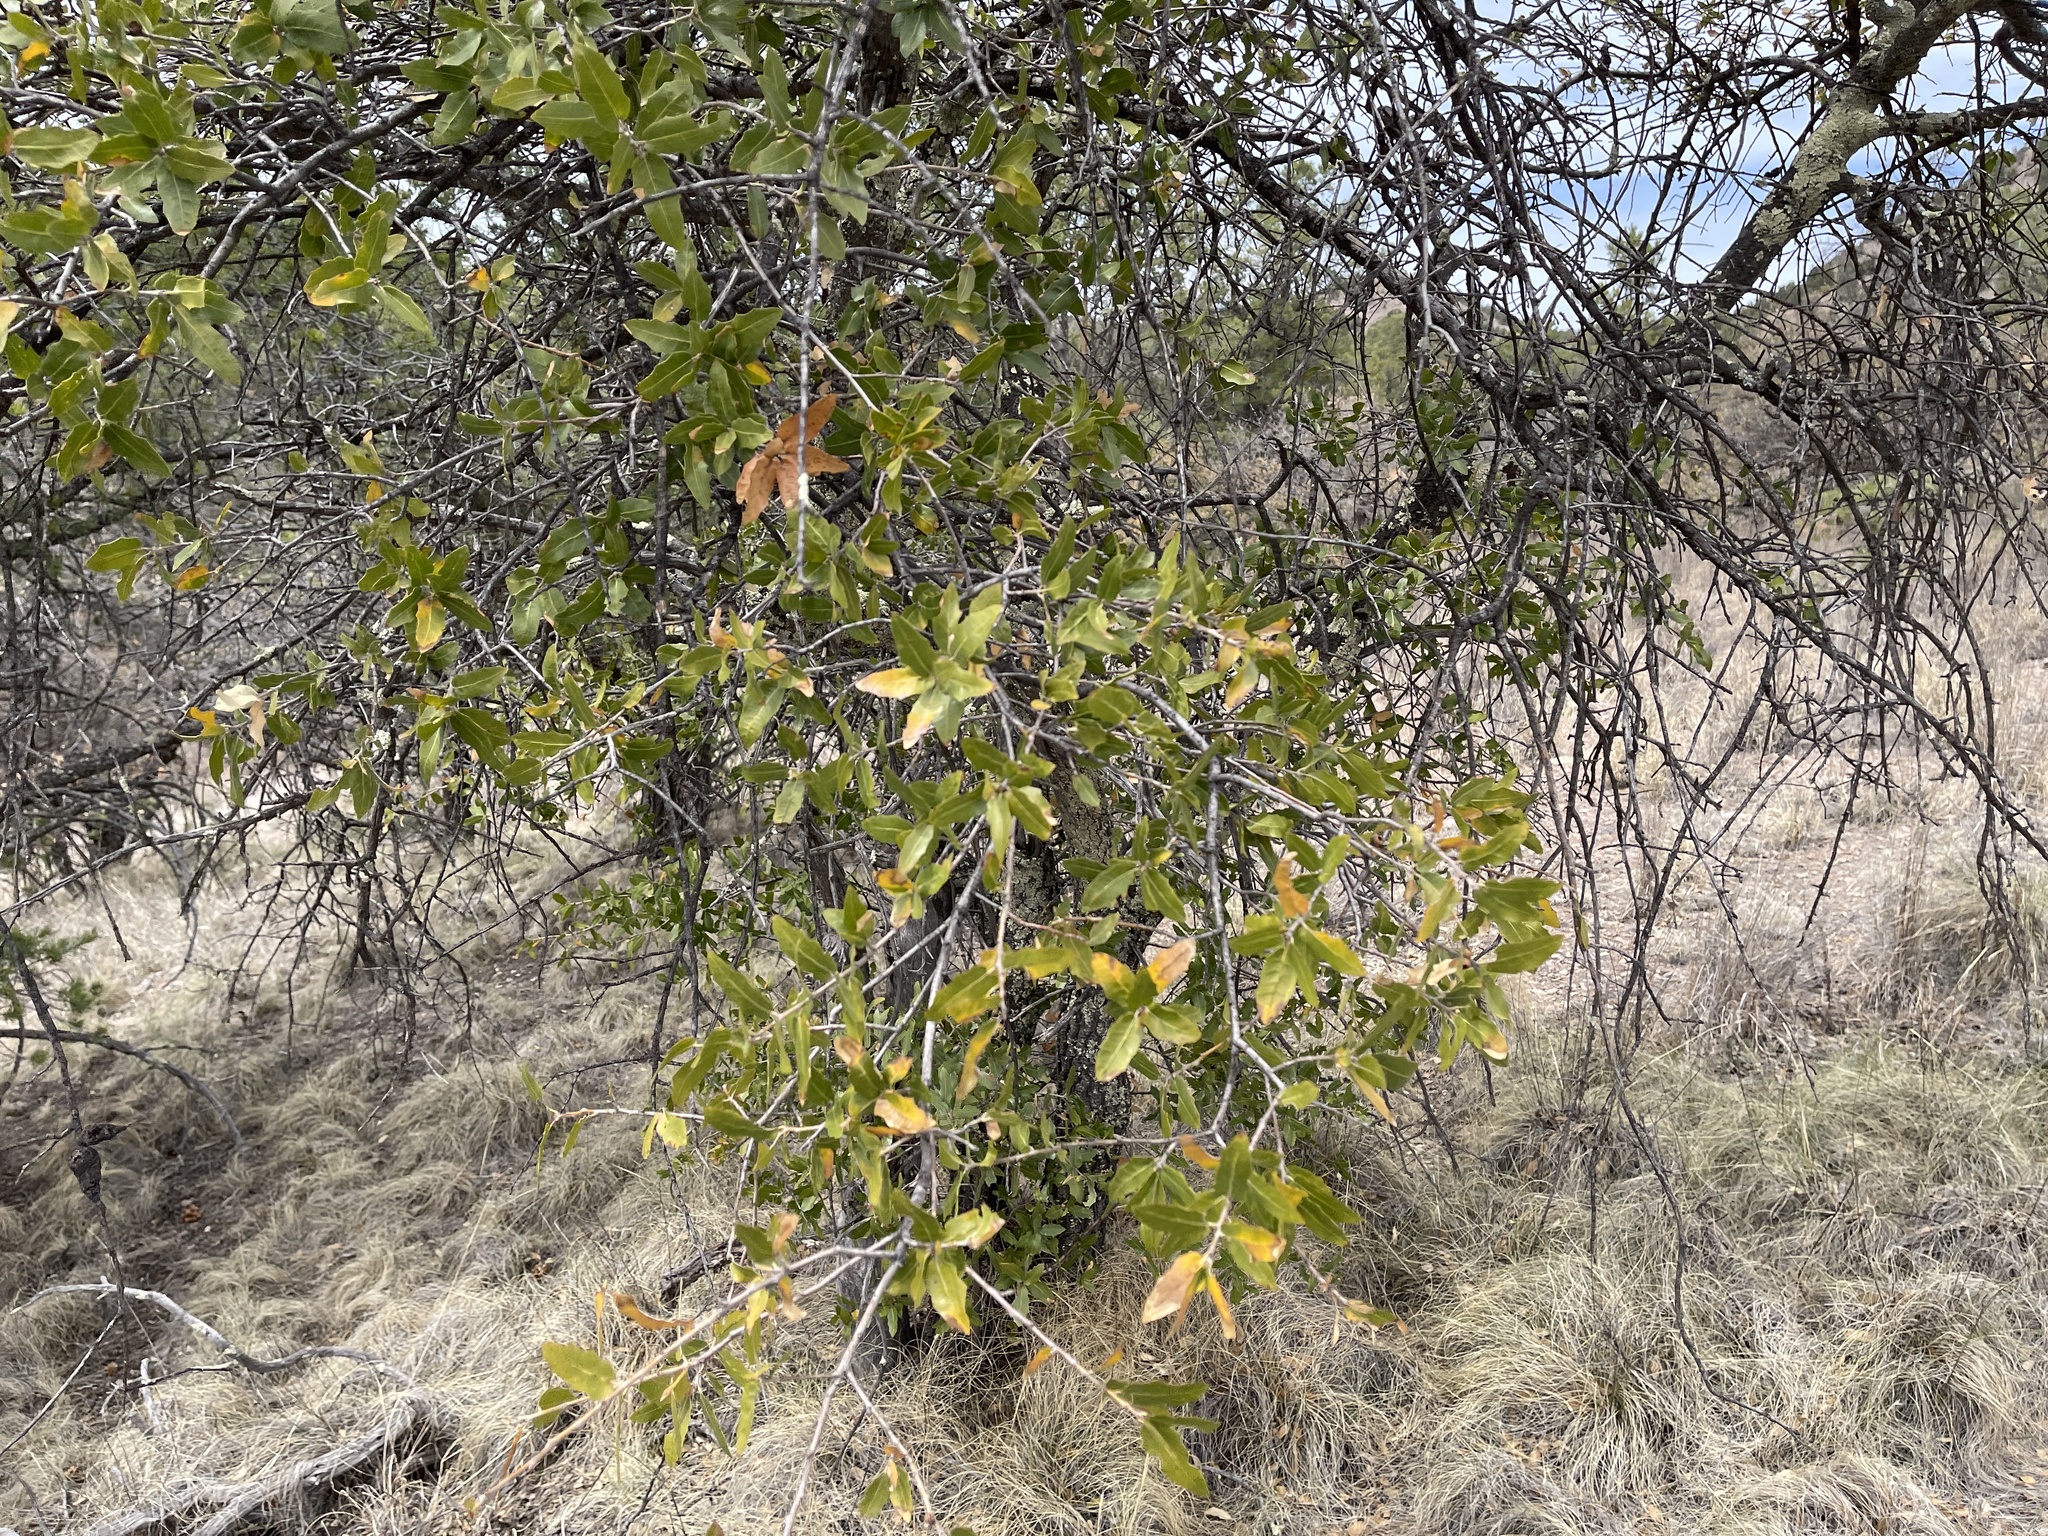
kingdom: Plantae
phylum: Tracheophyta
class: Magnoliopsida
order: Fagales
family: Fagaceae
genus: Quercus
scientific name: Quercus emoryi
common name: Emory oak
